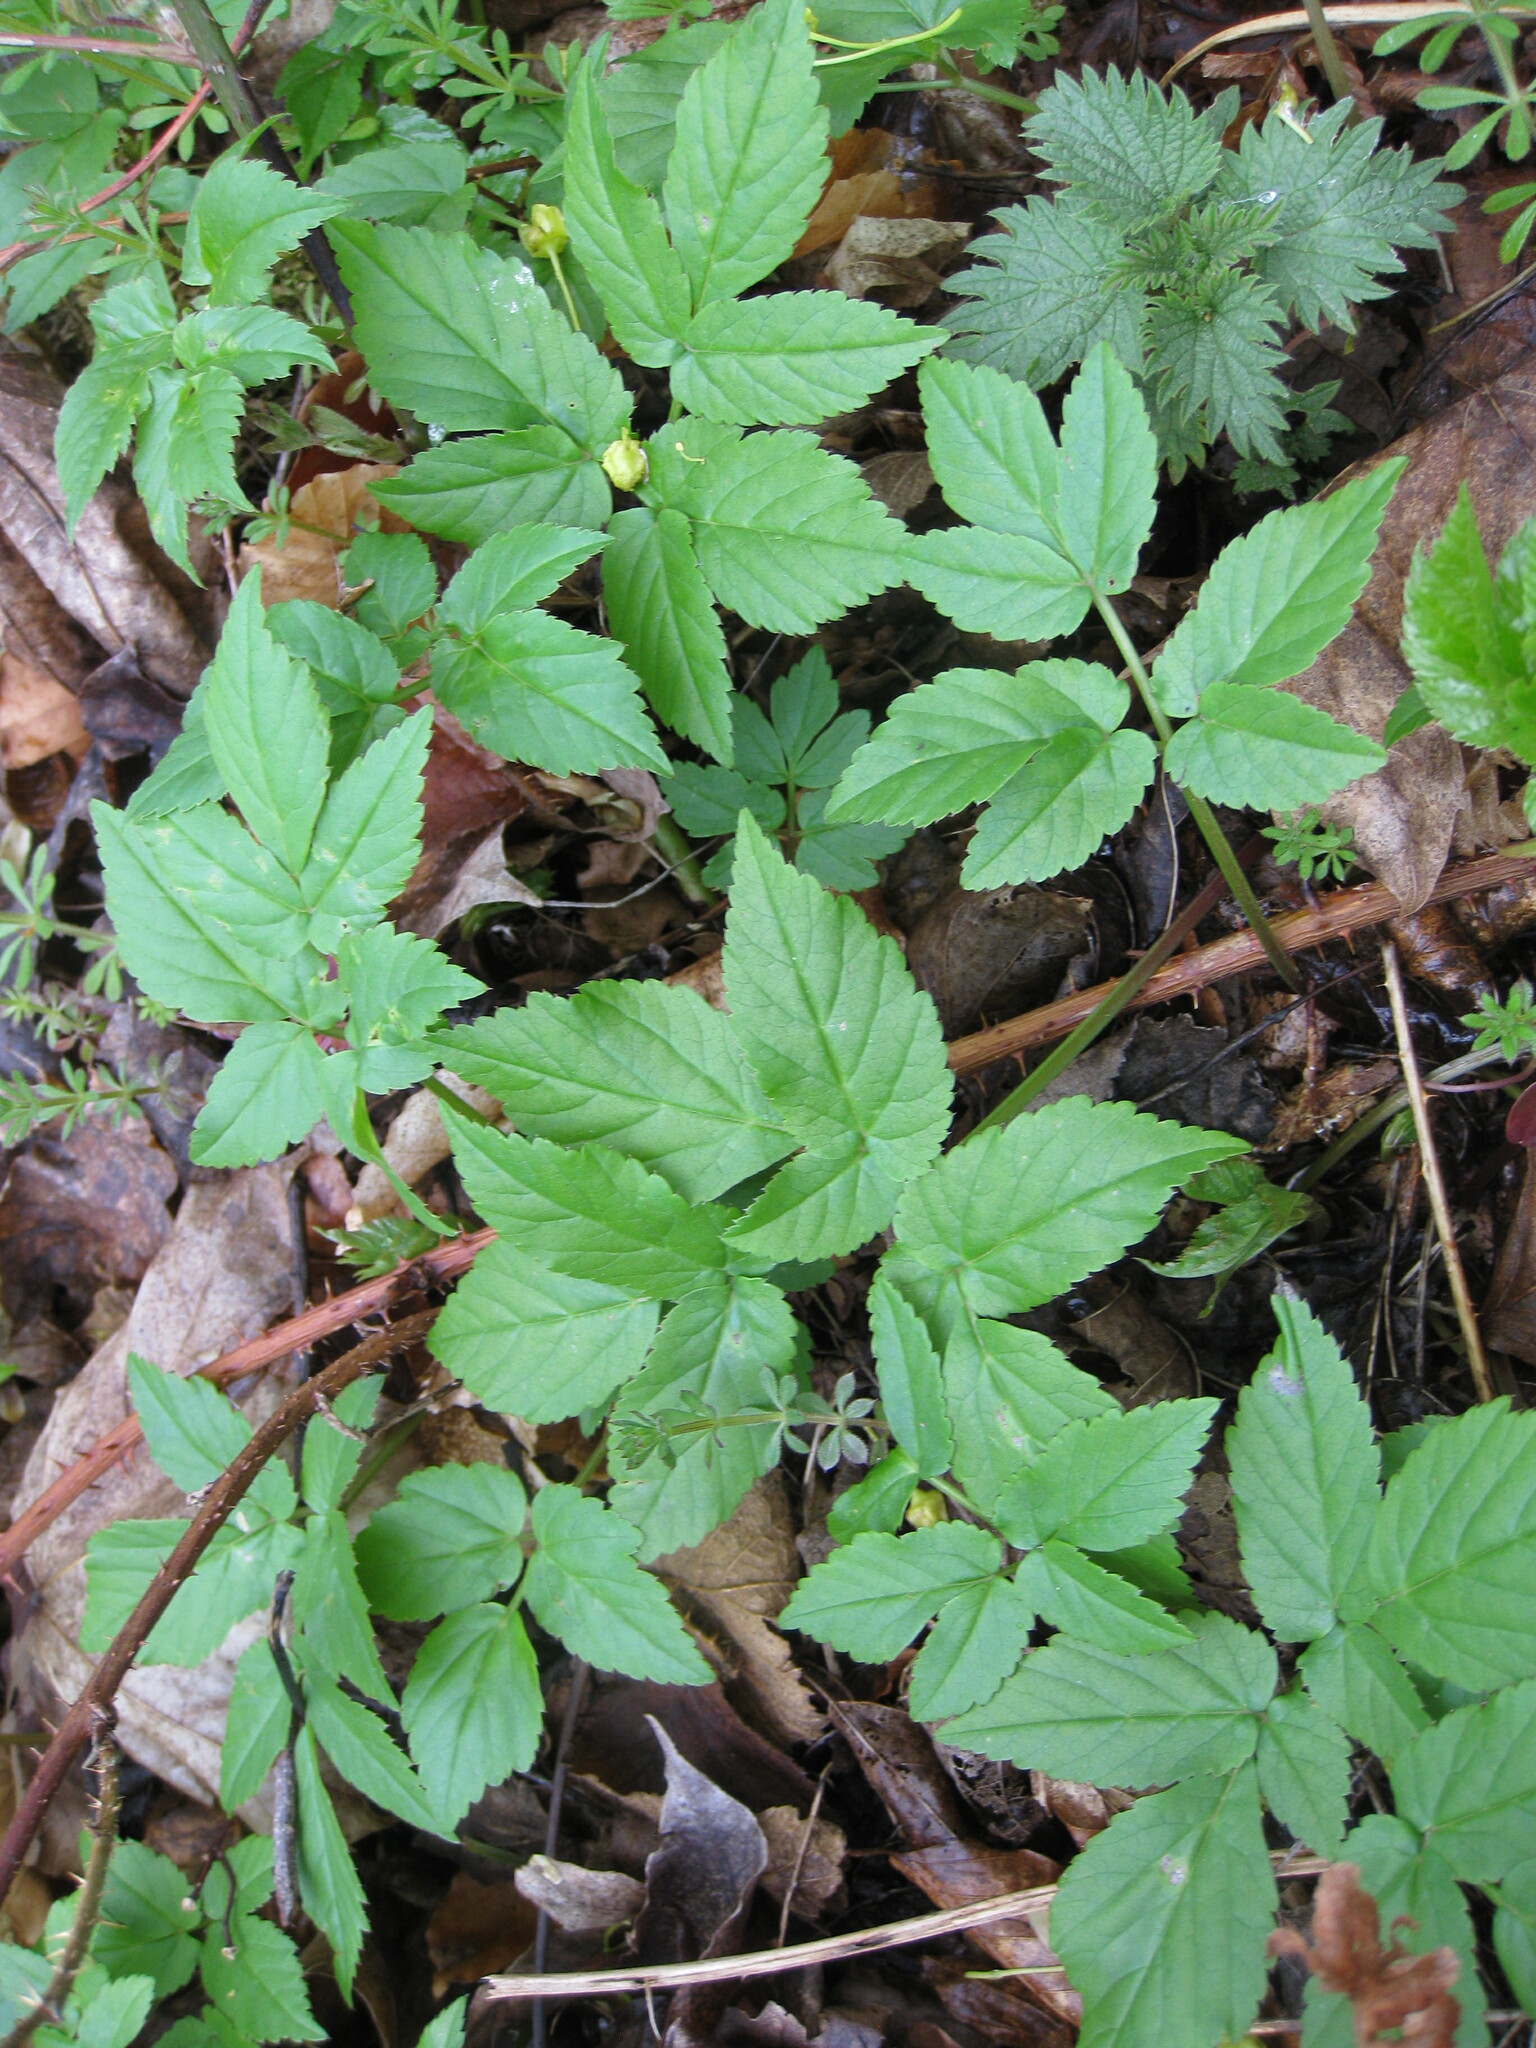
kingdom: Plantae
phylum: Tracheophyta
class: Magnoliopsida
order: Apiales
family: Apiaceae
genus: Aegopodium
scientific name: Aegopodium podagraria
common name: Ground-elder
